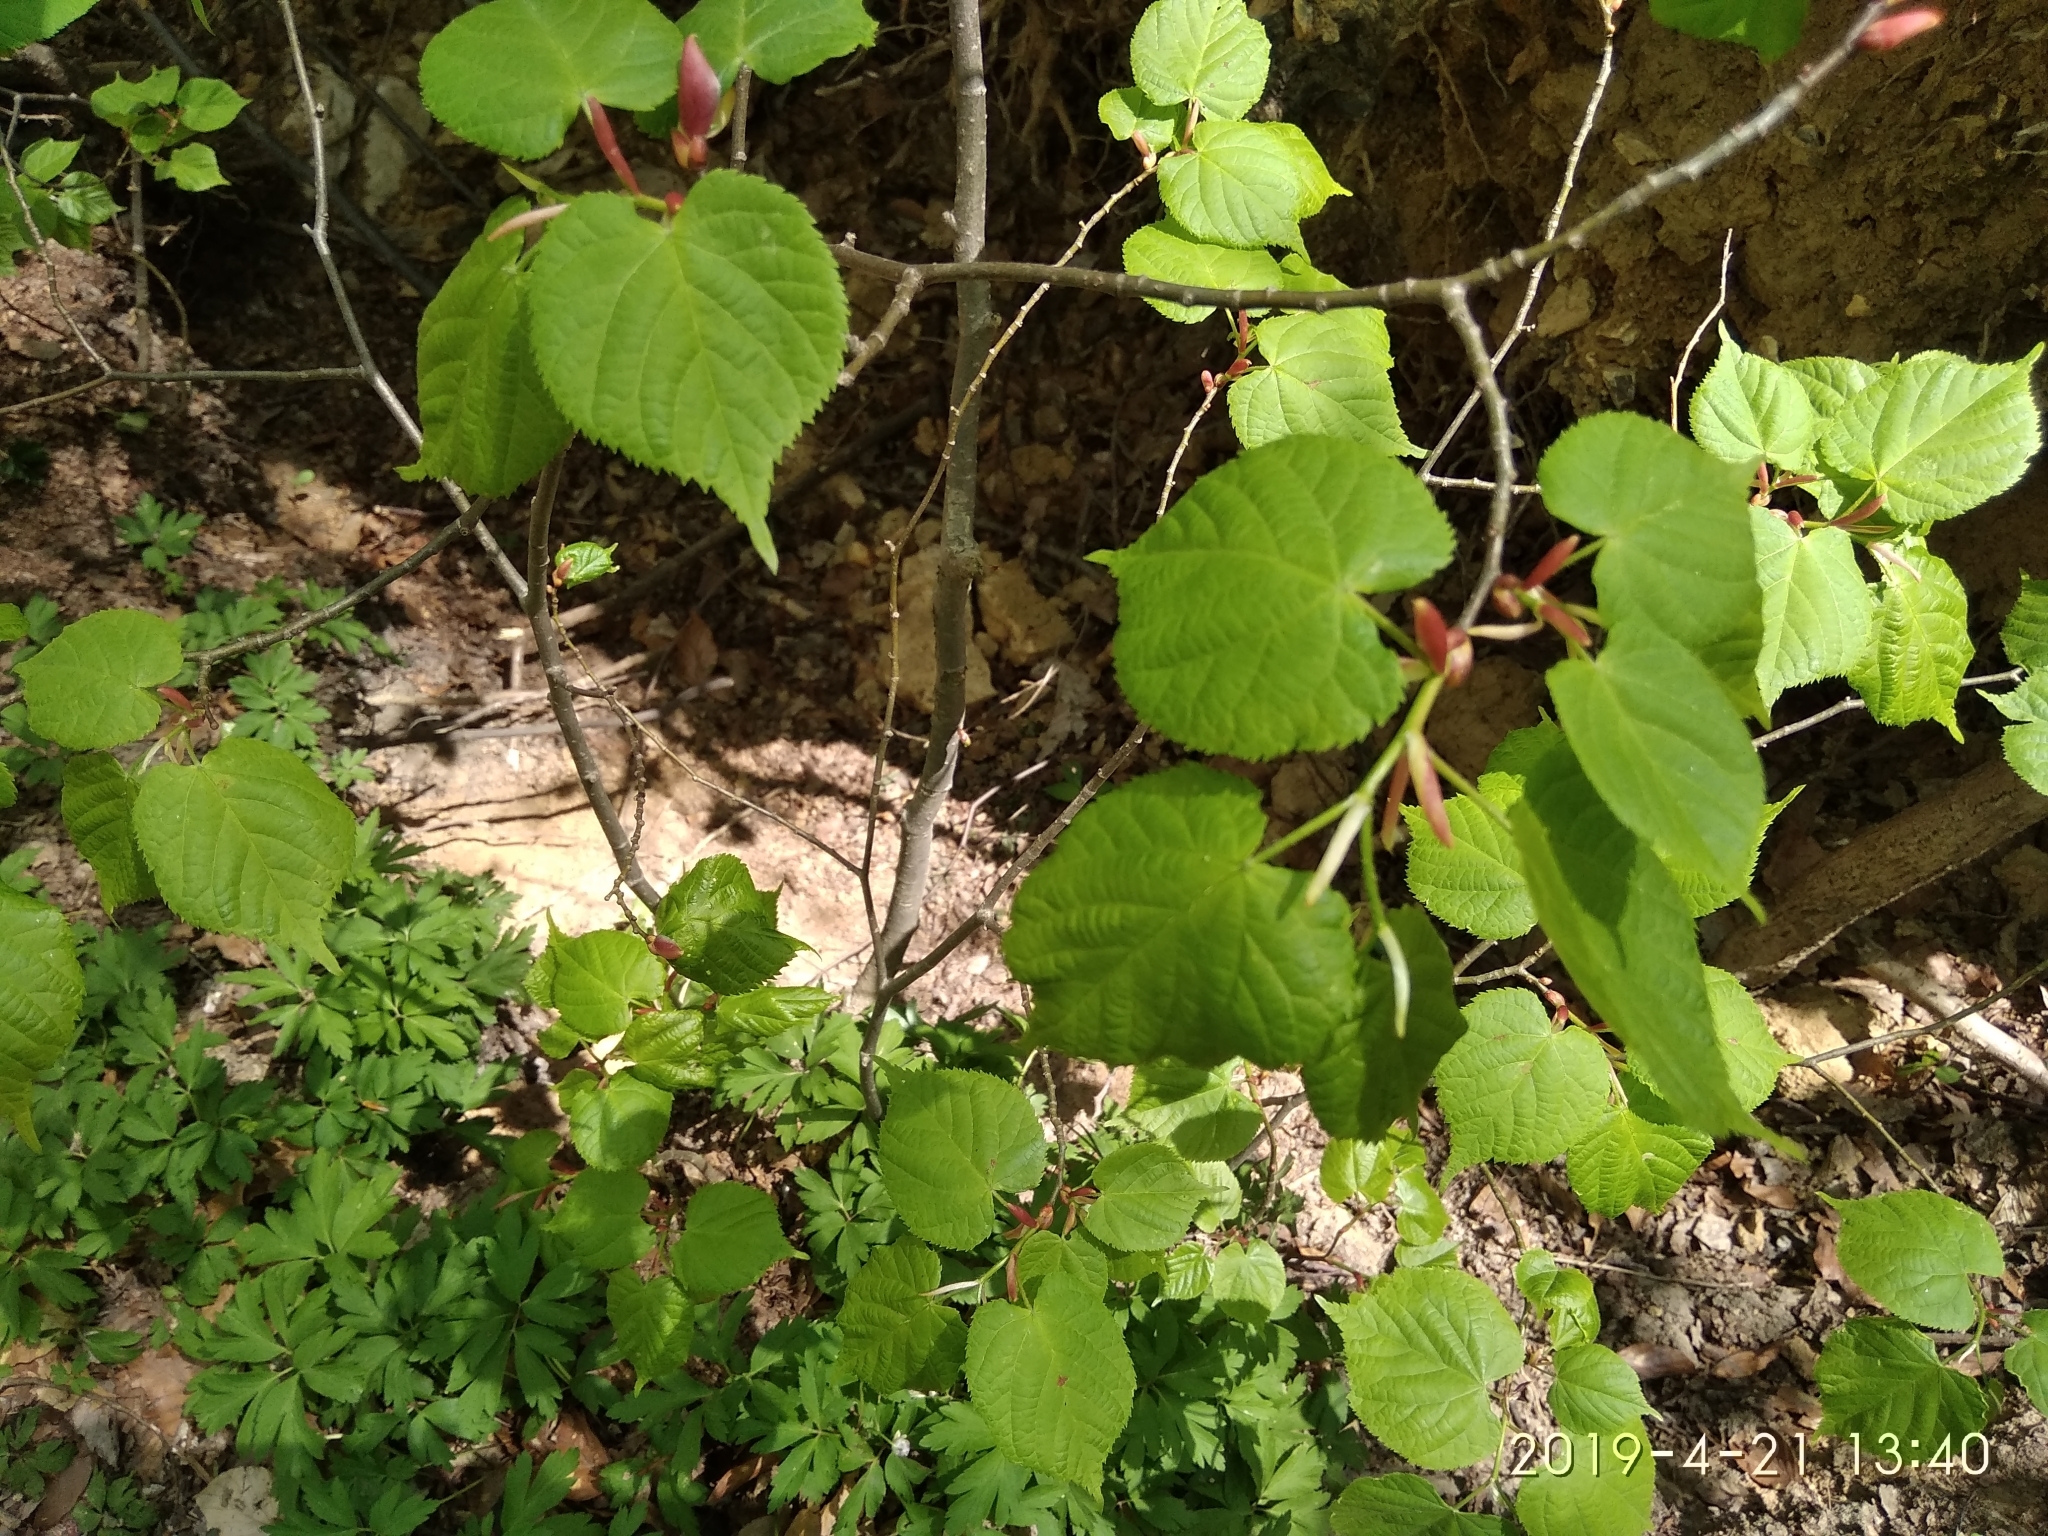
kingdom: Plantae
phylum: Tracheophyta
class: Magnoliopsida
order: Malvales
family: Malvaceae
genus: Tilia
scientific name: Tilia cordata
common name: Small-leaved lime
